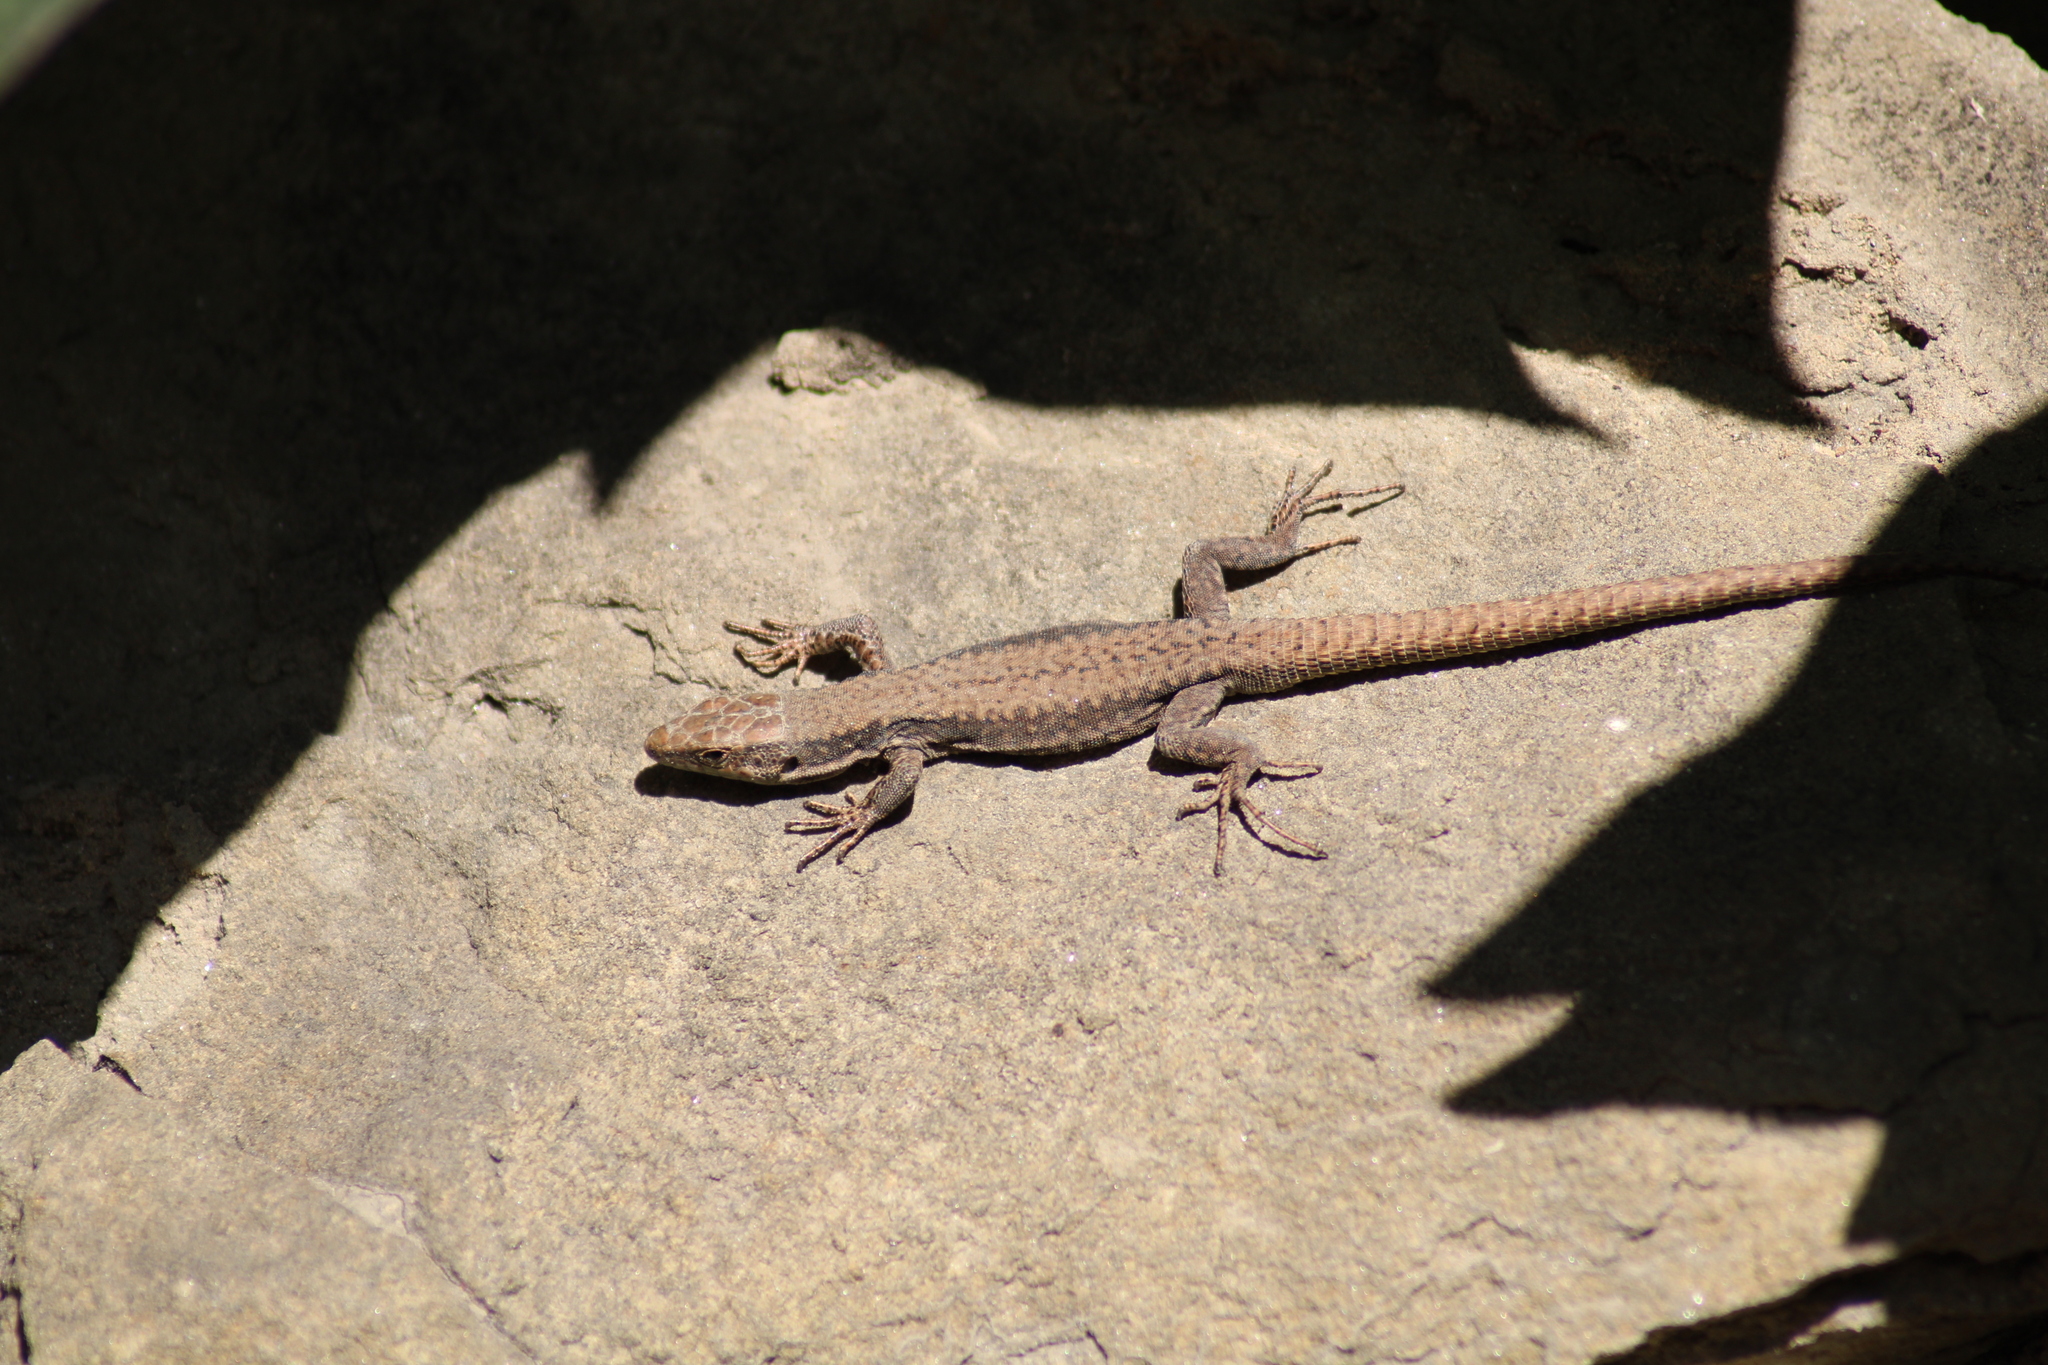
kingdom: Animalia
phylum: Chordata
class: Squamata
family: Lacertidae
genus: Podarcis
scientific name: Podarcis muralis
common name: Common wall lizard
